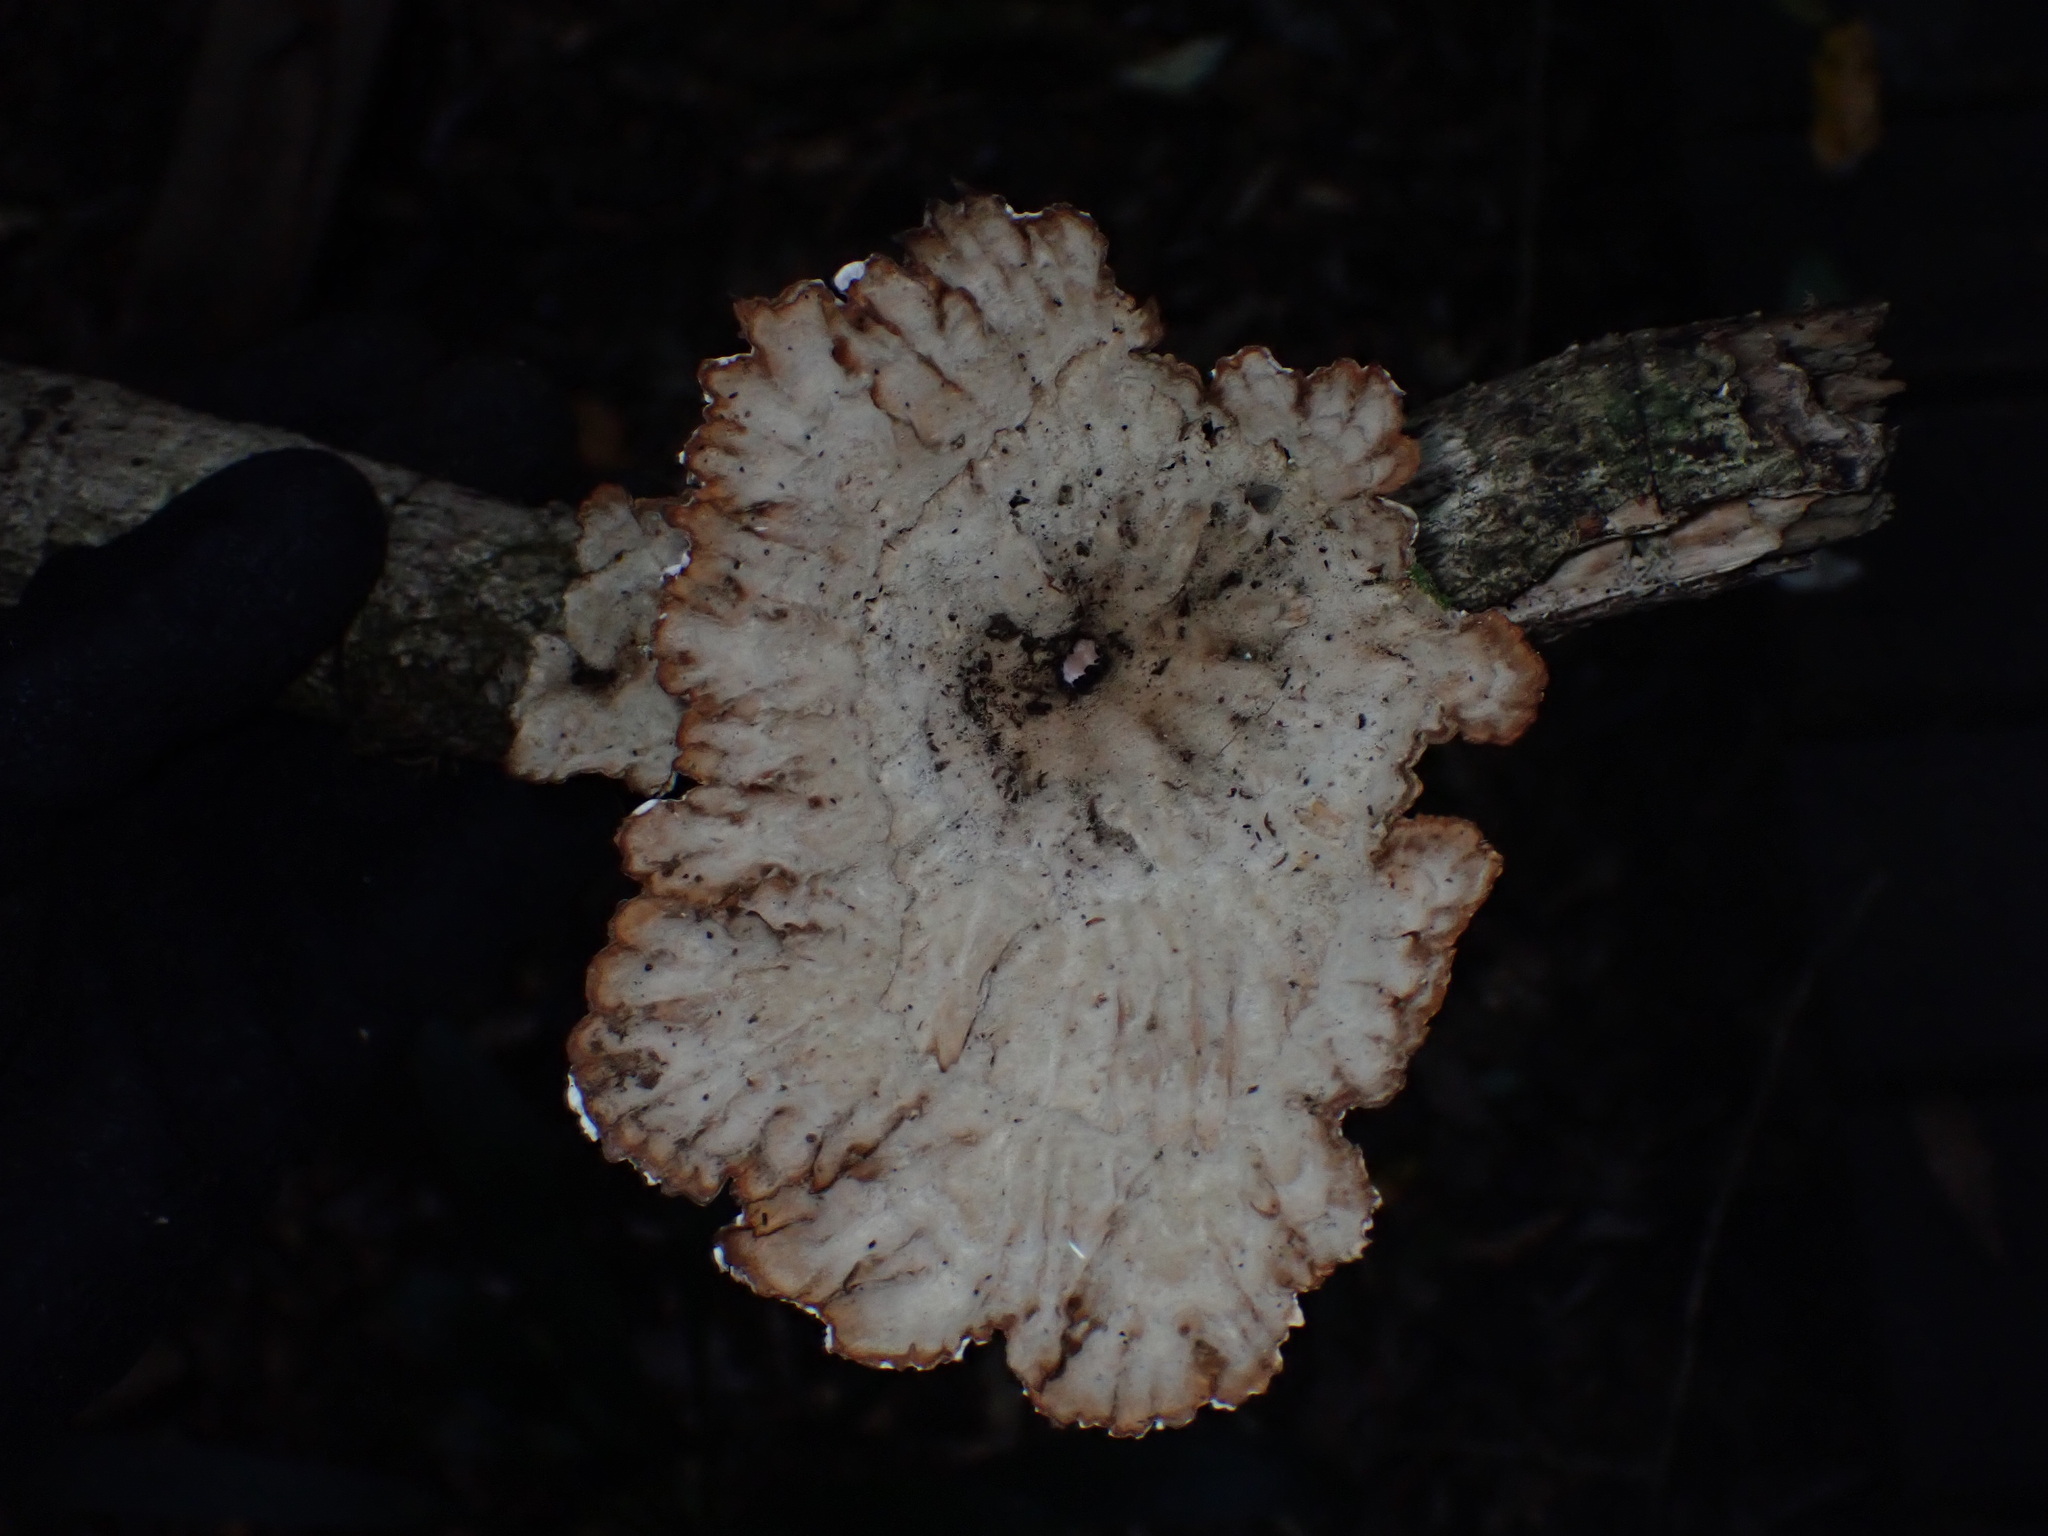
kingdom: Fungi
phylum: Basidiomycota
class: Agaricomycetes
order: Polyporales
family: Panaceae
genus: Cymatoderma
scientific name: Cymatoderma elegans
